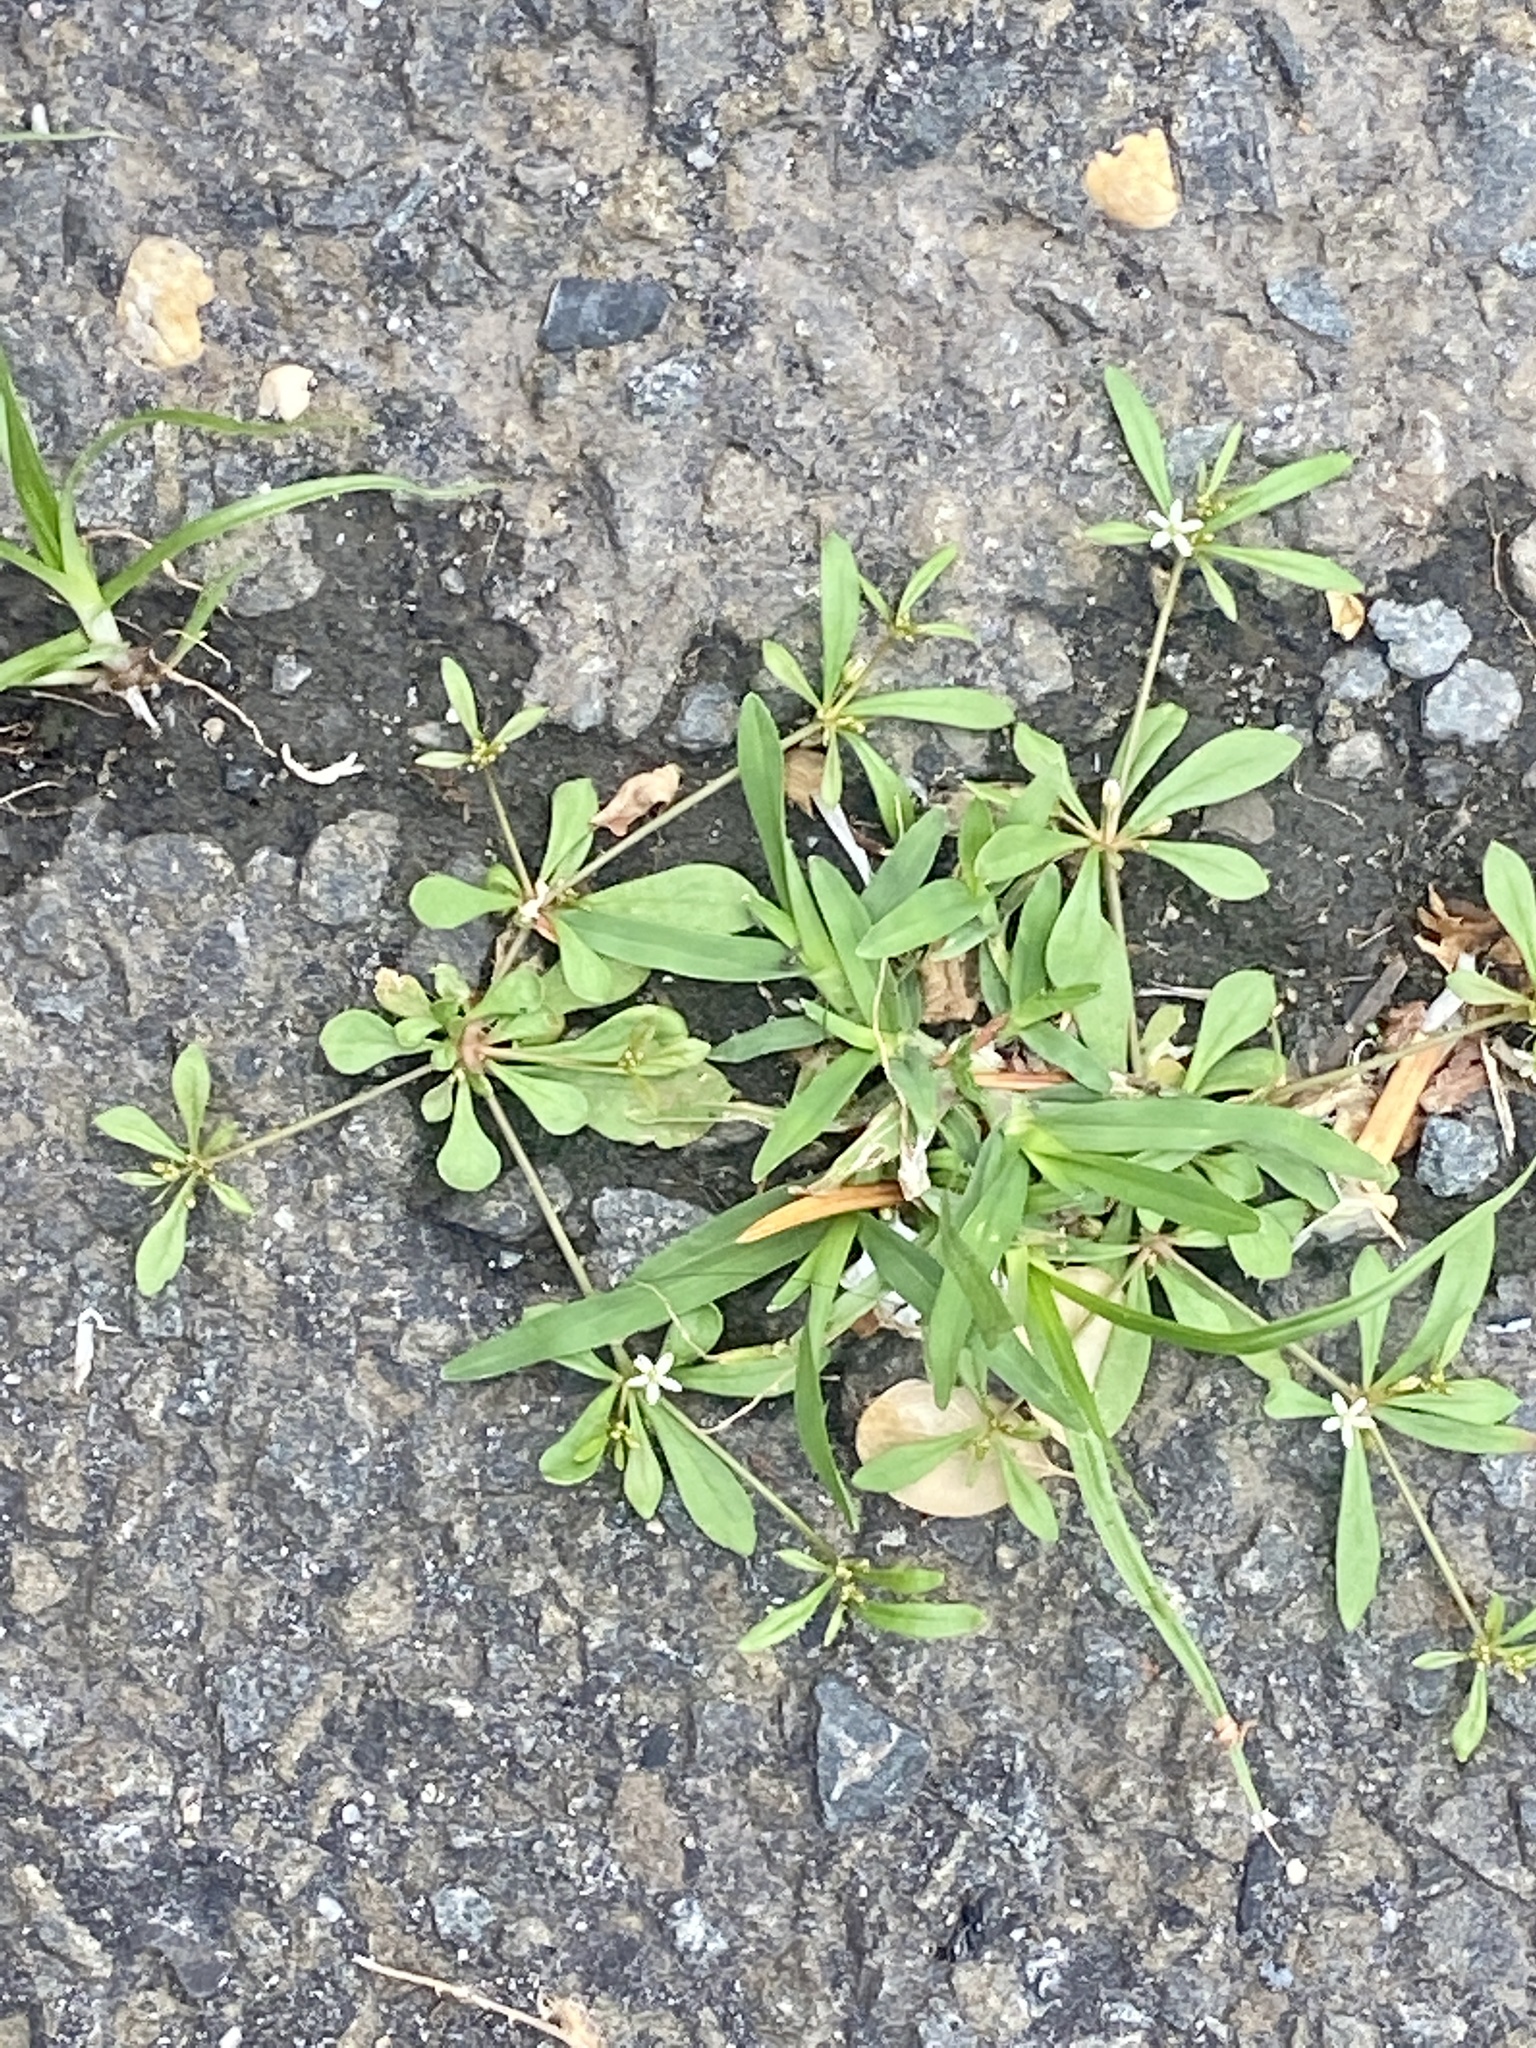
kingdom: Plantae
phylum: Tracheophyta
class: Magnoliopsida
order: Caryophyllales
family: Molluginaceae
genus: Mollugo
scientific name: Mollugo verticillata
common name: Green carpetweed
